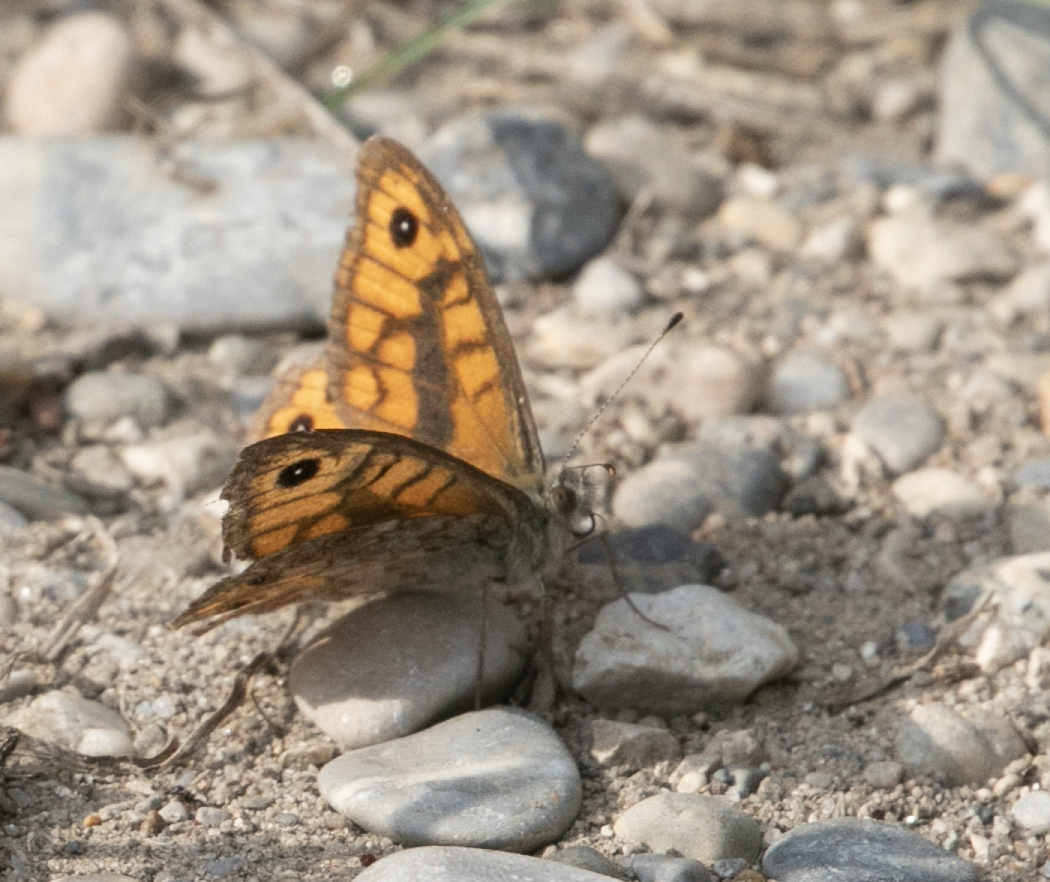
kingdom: Animalia
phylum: Arthropoda
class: Insecta
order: Lepidoptera
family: Nymphalidae
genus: Pararge
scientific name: Pararge Lasiommata megera
